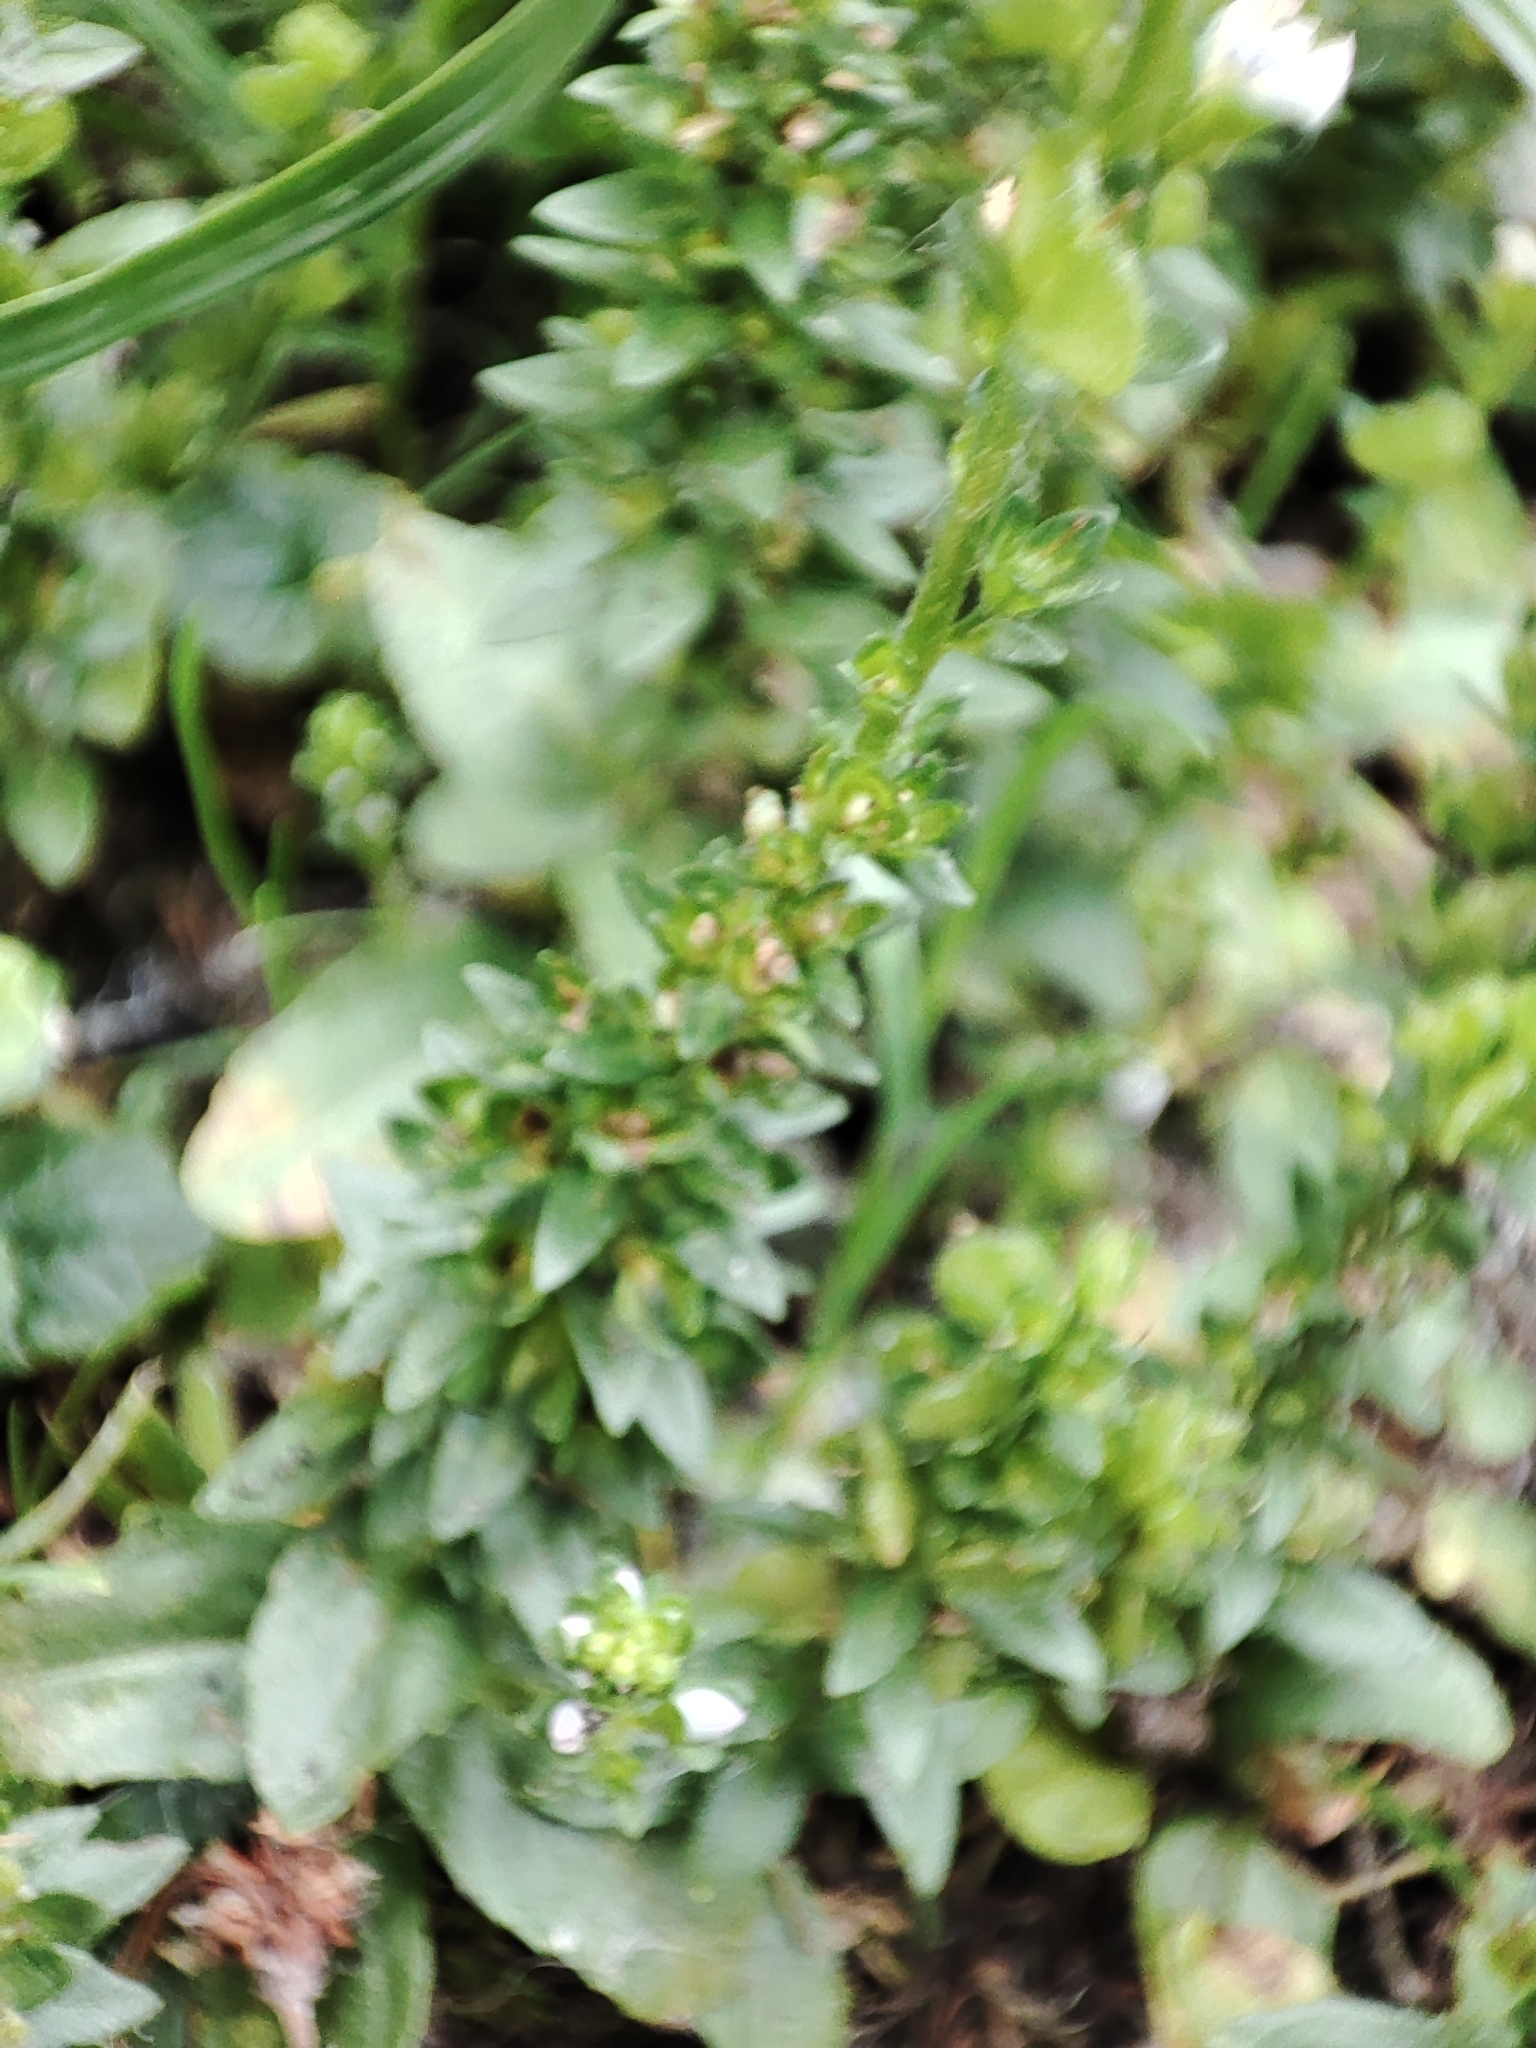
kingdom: Plantae
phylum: Tracheophyta
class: Magnoliopsida
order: Lamiales
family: Plantaginaceae
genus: Veronica
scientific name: Veronica serpyllifolia
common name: Thyme-leaved speedwell
